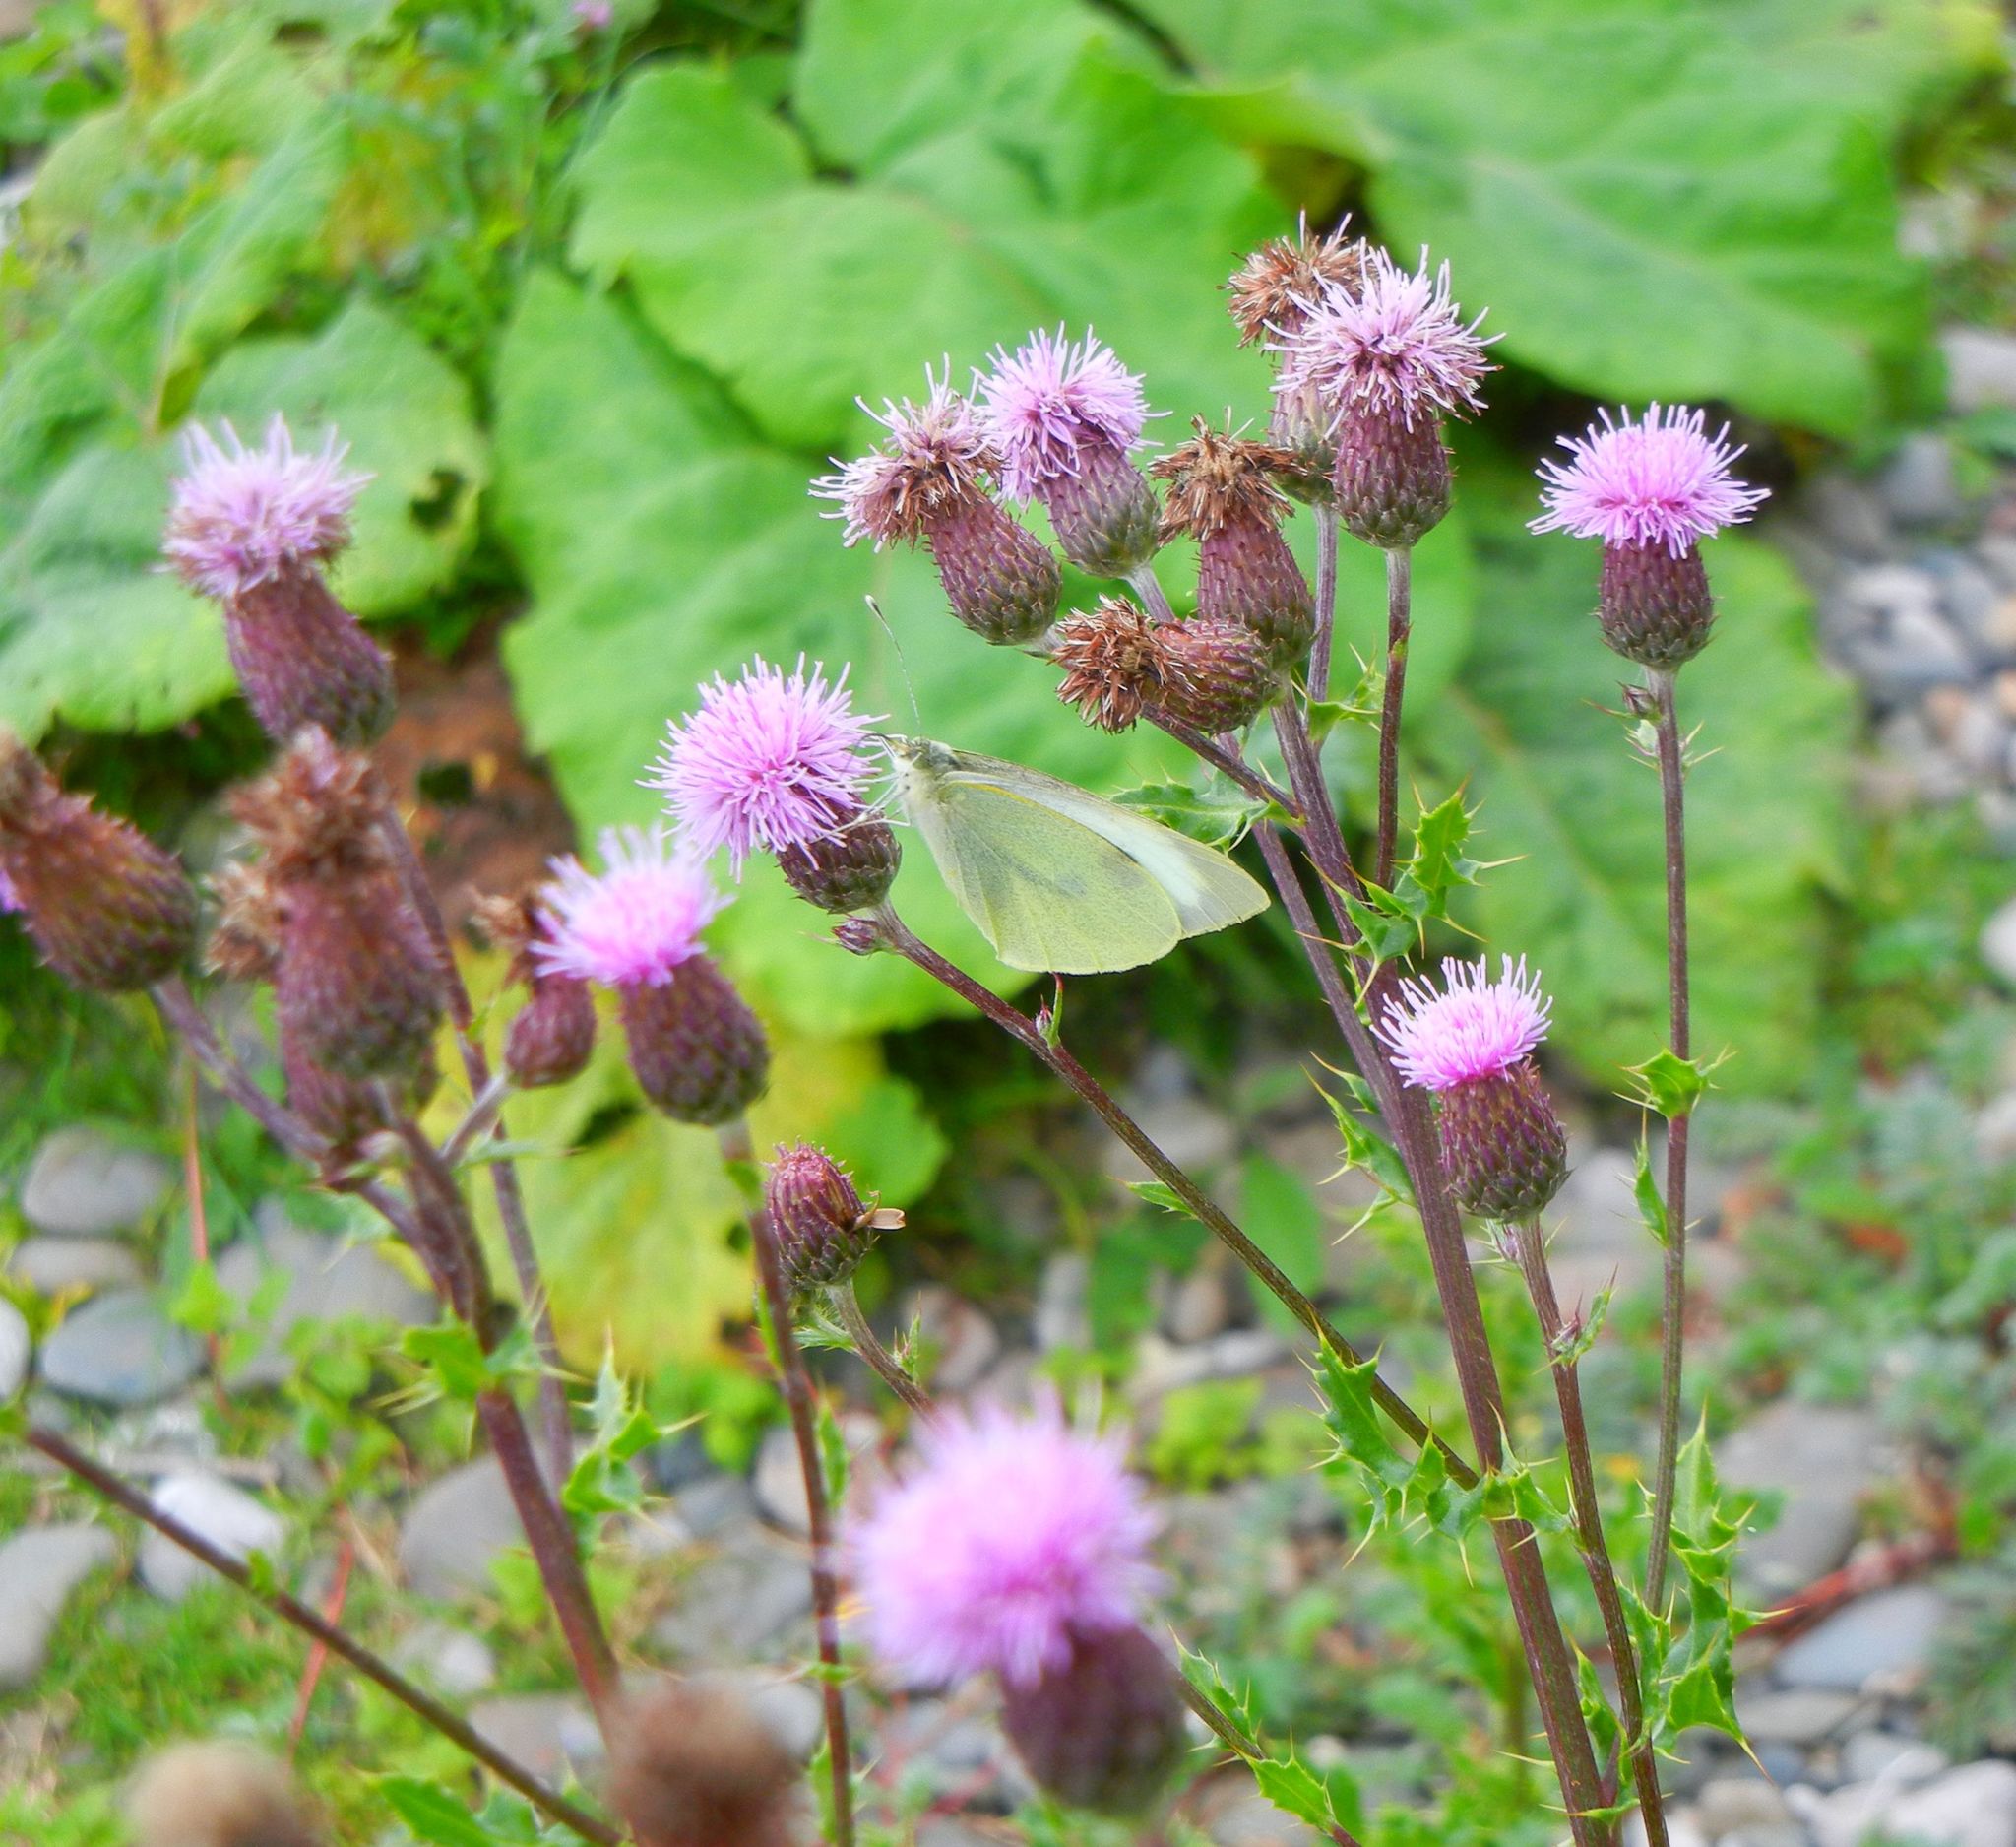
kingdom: Plantae
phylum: Tracheophyta
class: Magnoliopsida
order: Asterales
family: Asteraceae
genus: Cirsium
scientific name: Cirsium arvense
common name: Creeping thistle
